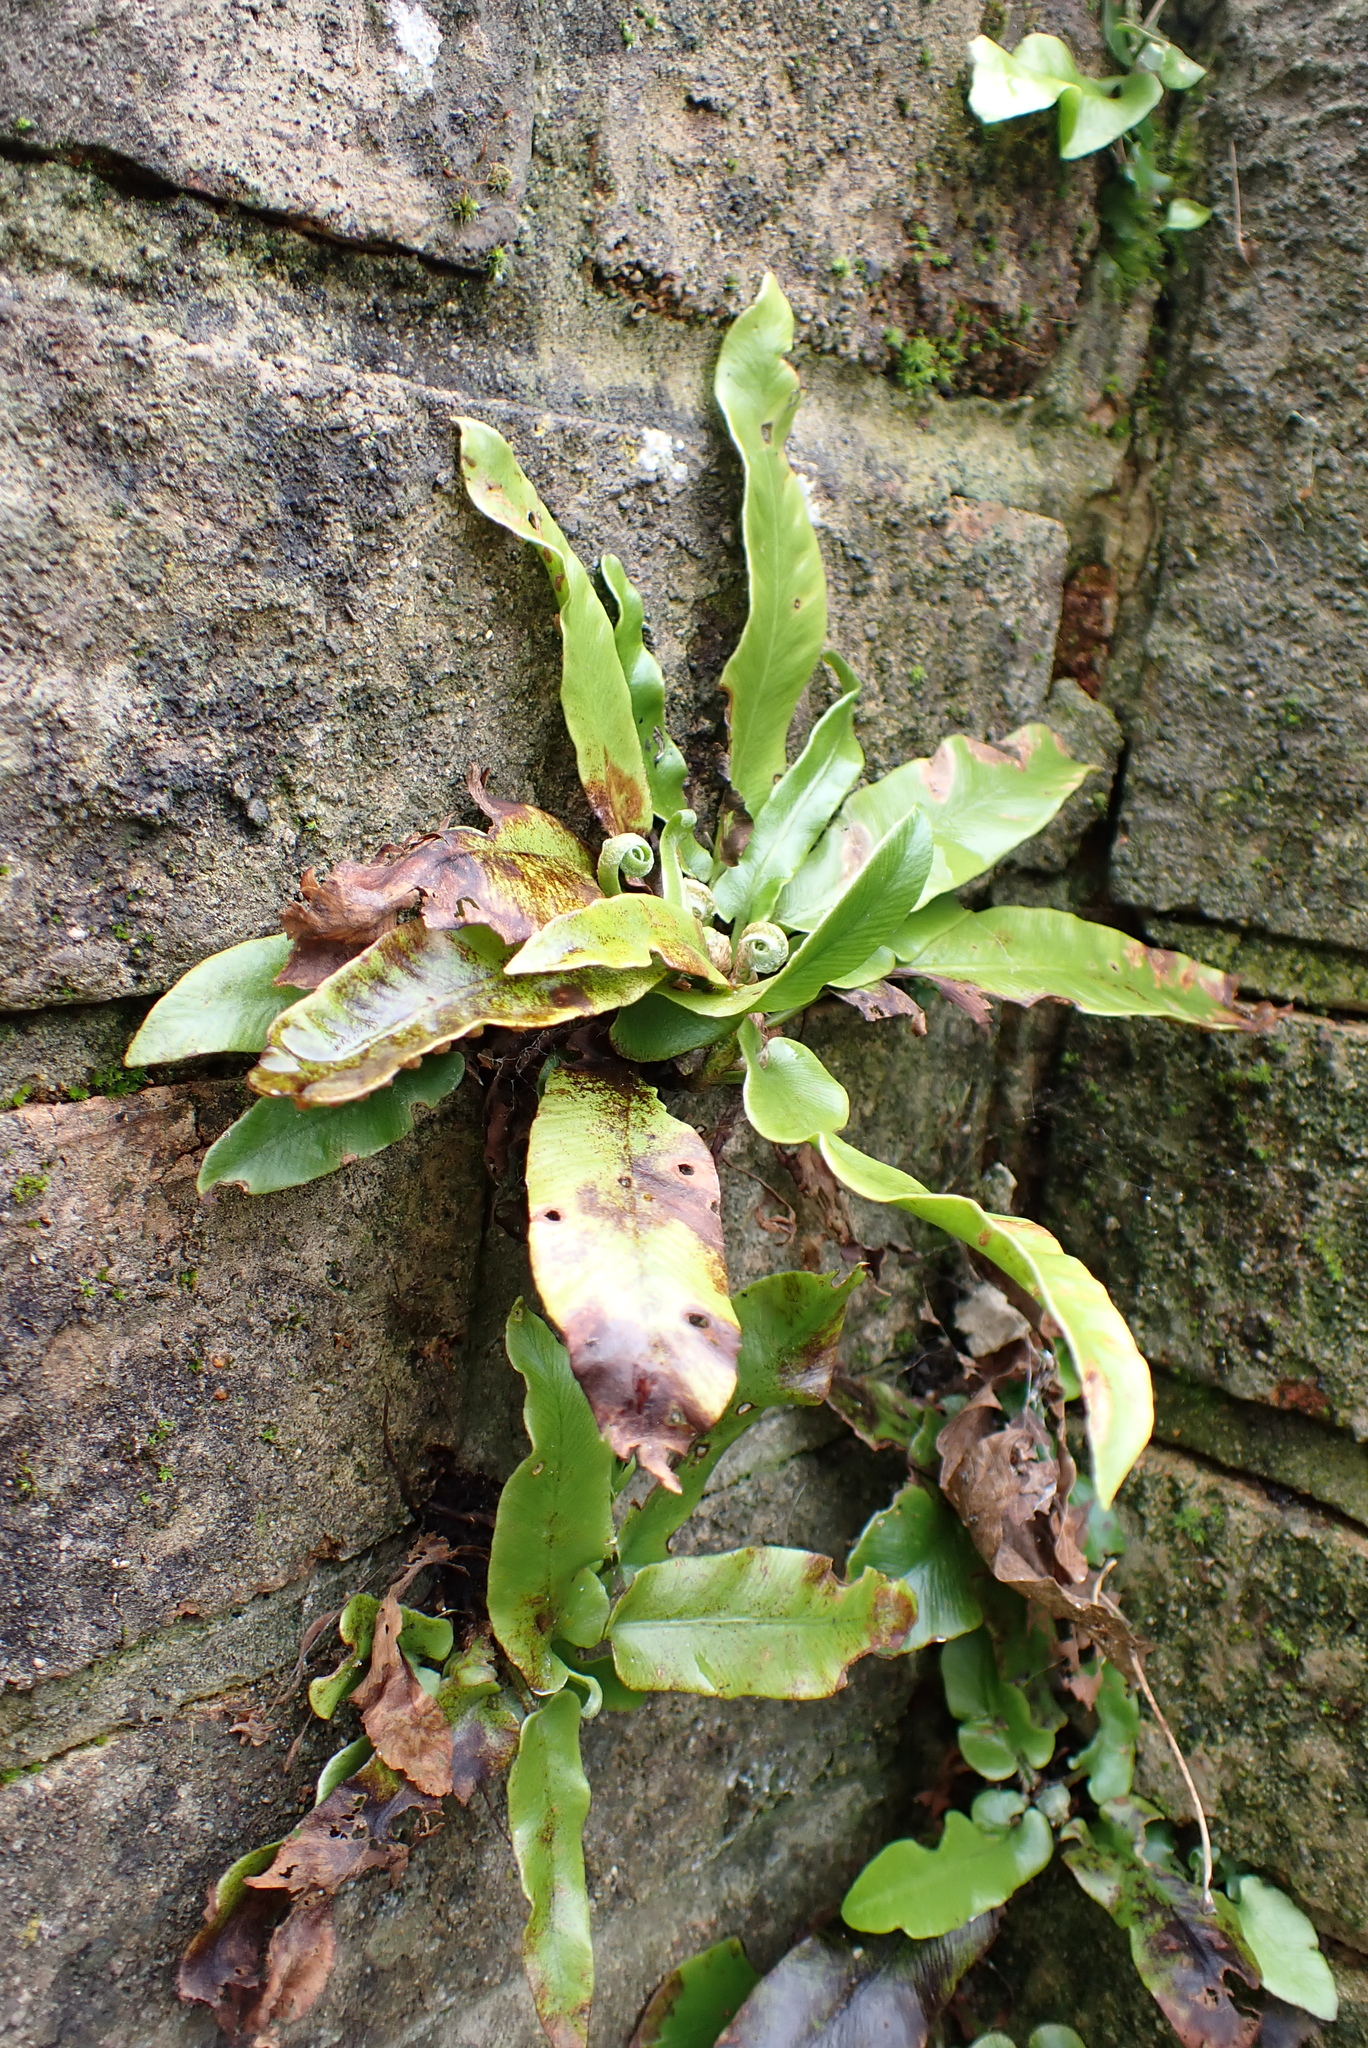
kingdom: Plantae
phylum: Tracheophyta
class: Polypodiopsida
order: Polypodiales
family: Aspleniaceae
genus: Asplenium
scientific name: Asplenium scolopendrium
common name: Hart's-tongue fern
